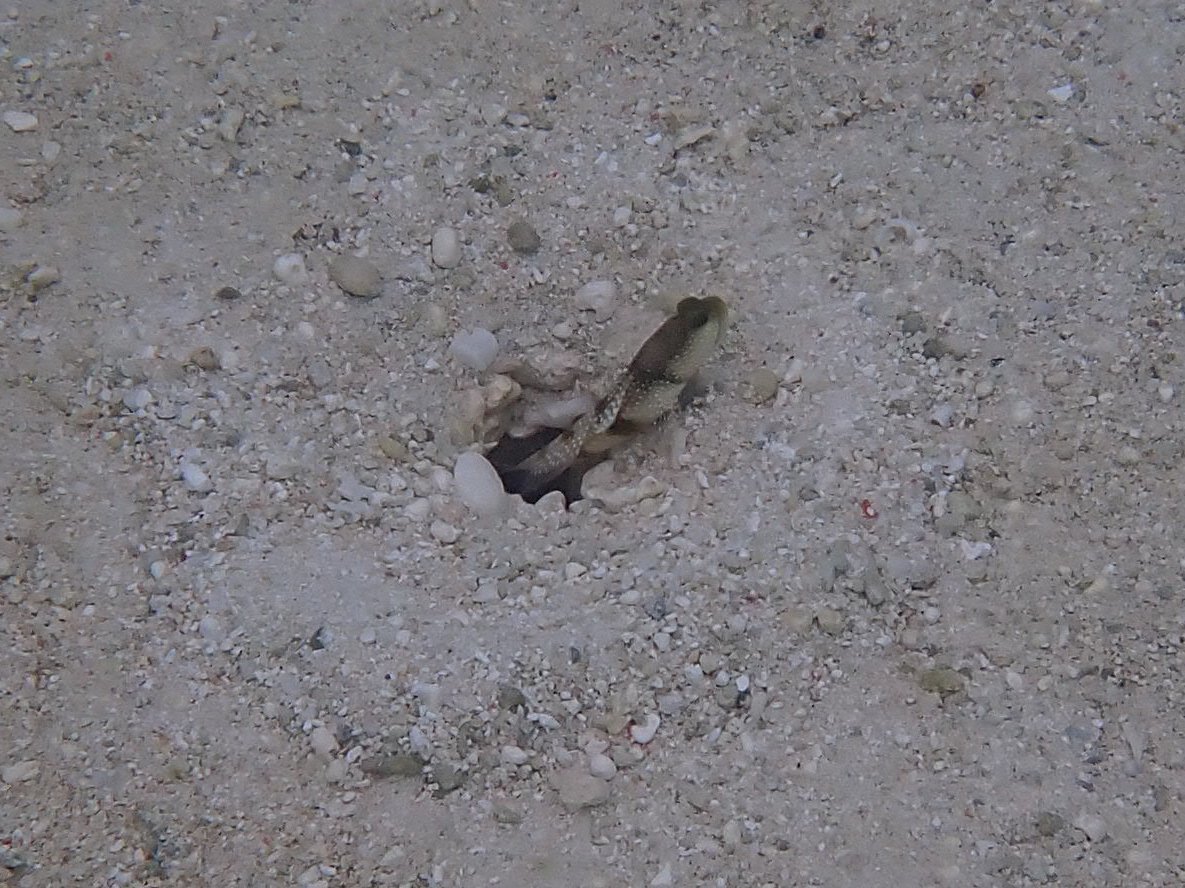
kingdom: Animalia
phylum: Chordata
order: Perciformes
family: Gobiidae
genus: Cryptocentrus
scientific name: Cryptocentrus cinctus
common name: Yellow shrimp goby
